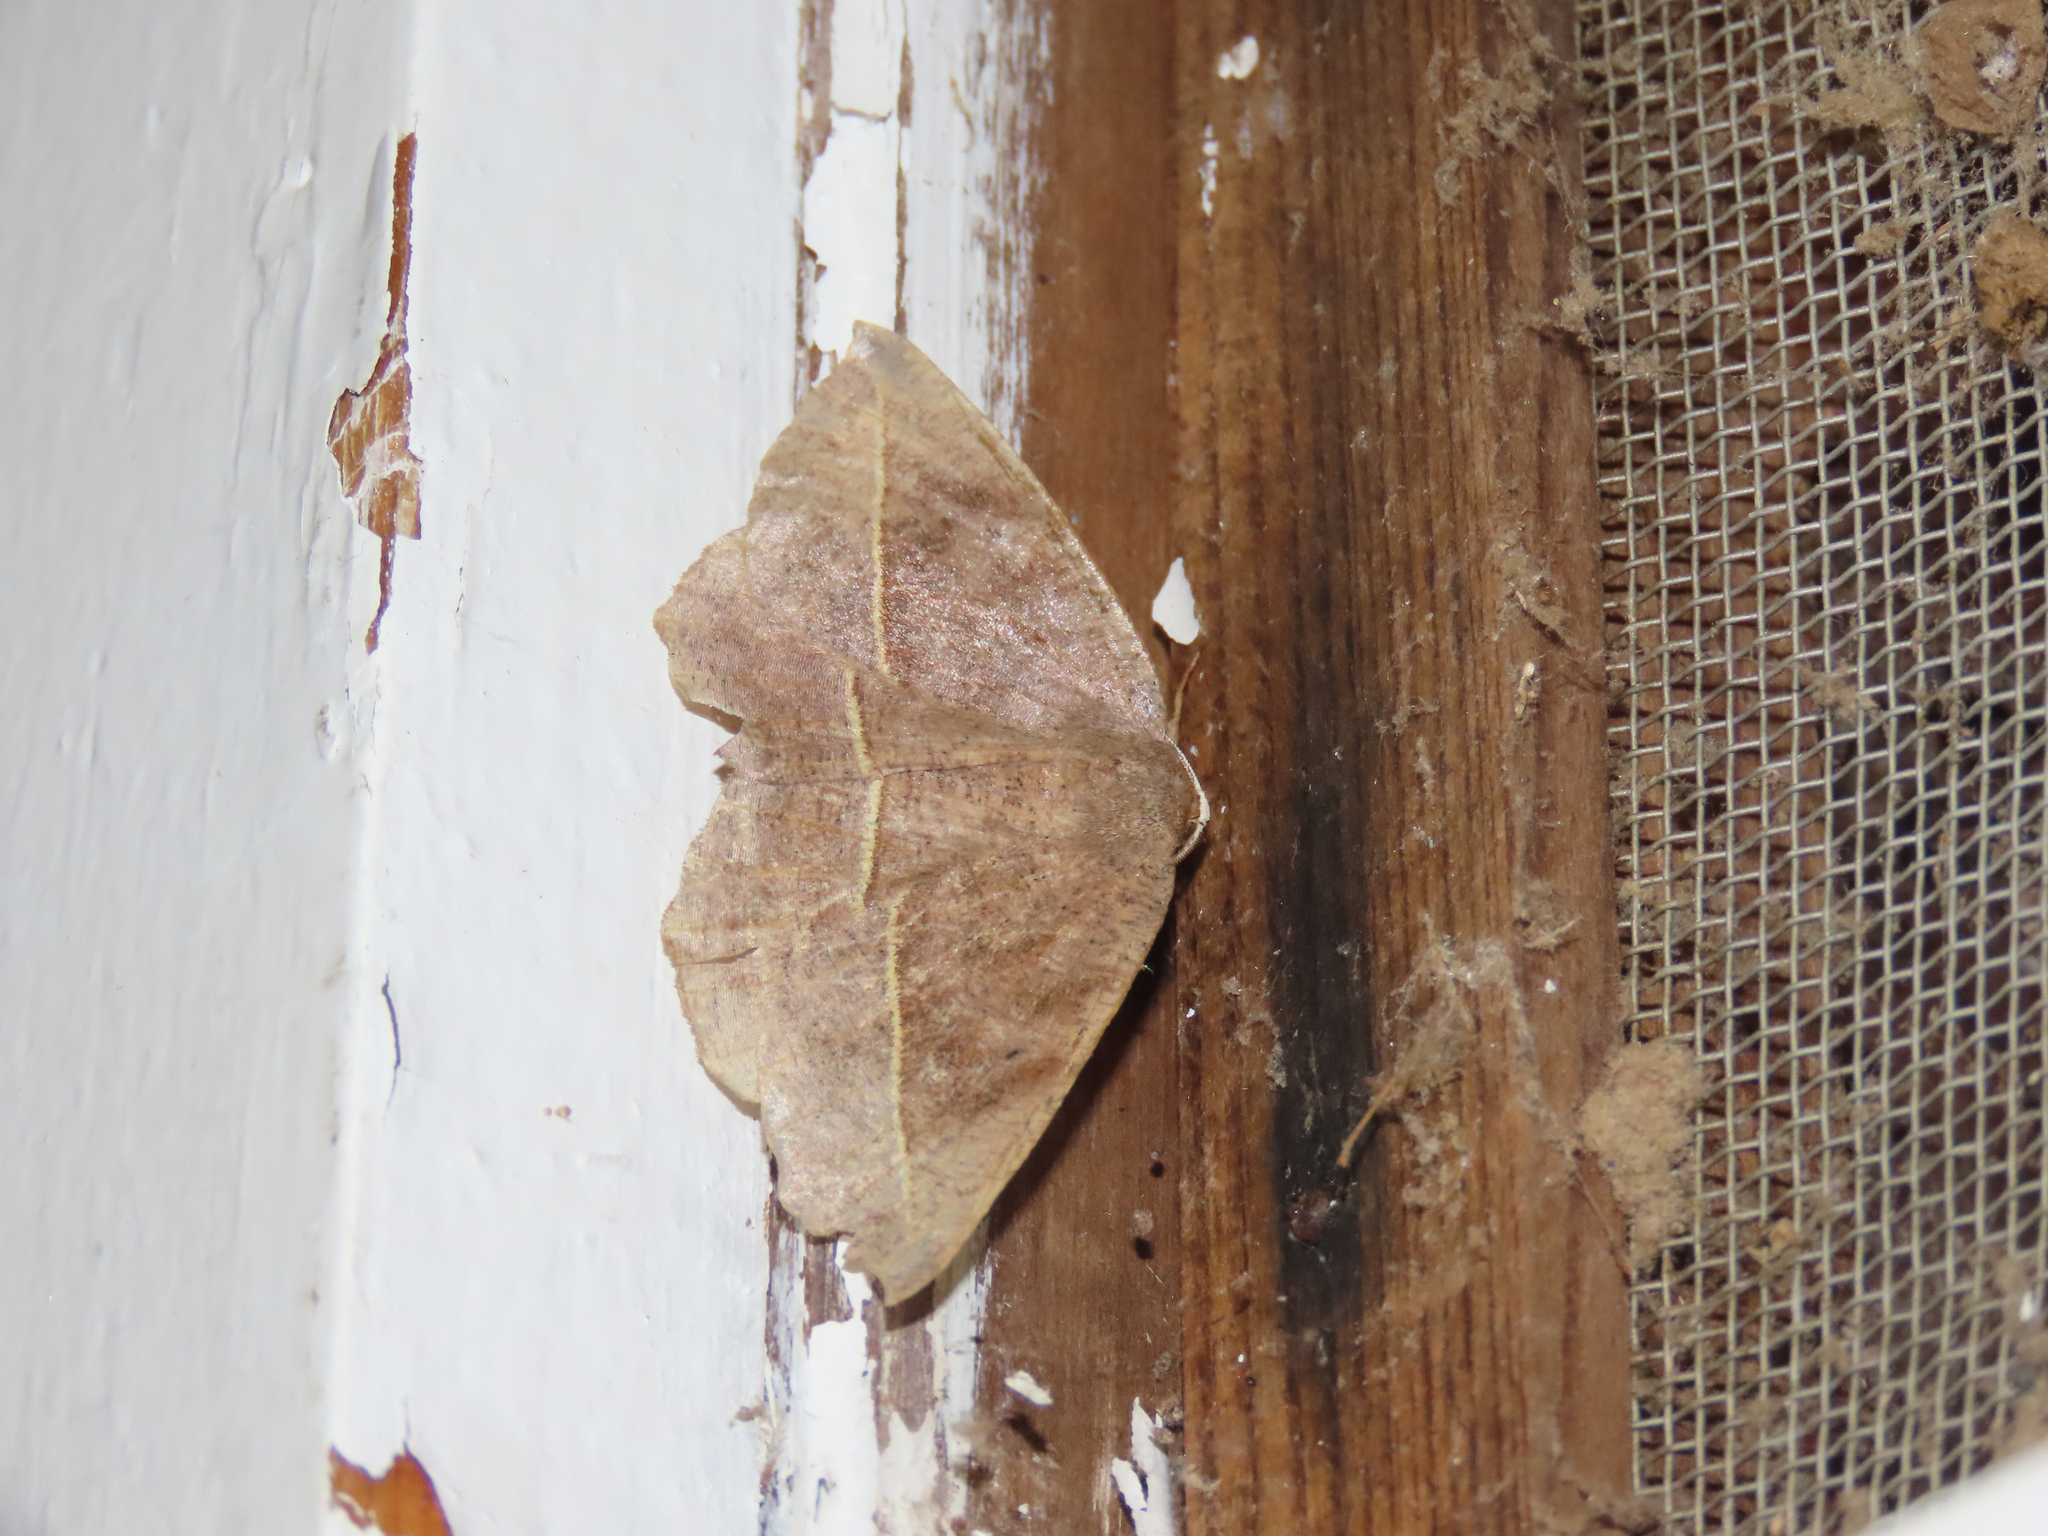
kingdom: Animalia
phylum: Arthropoda
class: Insecta
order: Lepidoptera
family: Geometridae
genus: Eutrapela
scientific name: Eutrapela clemataria
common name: Curved-toothed geometer
